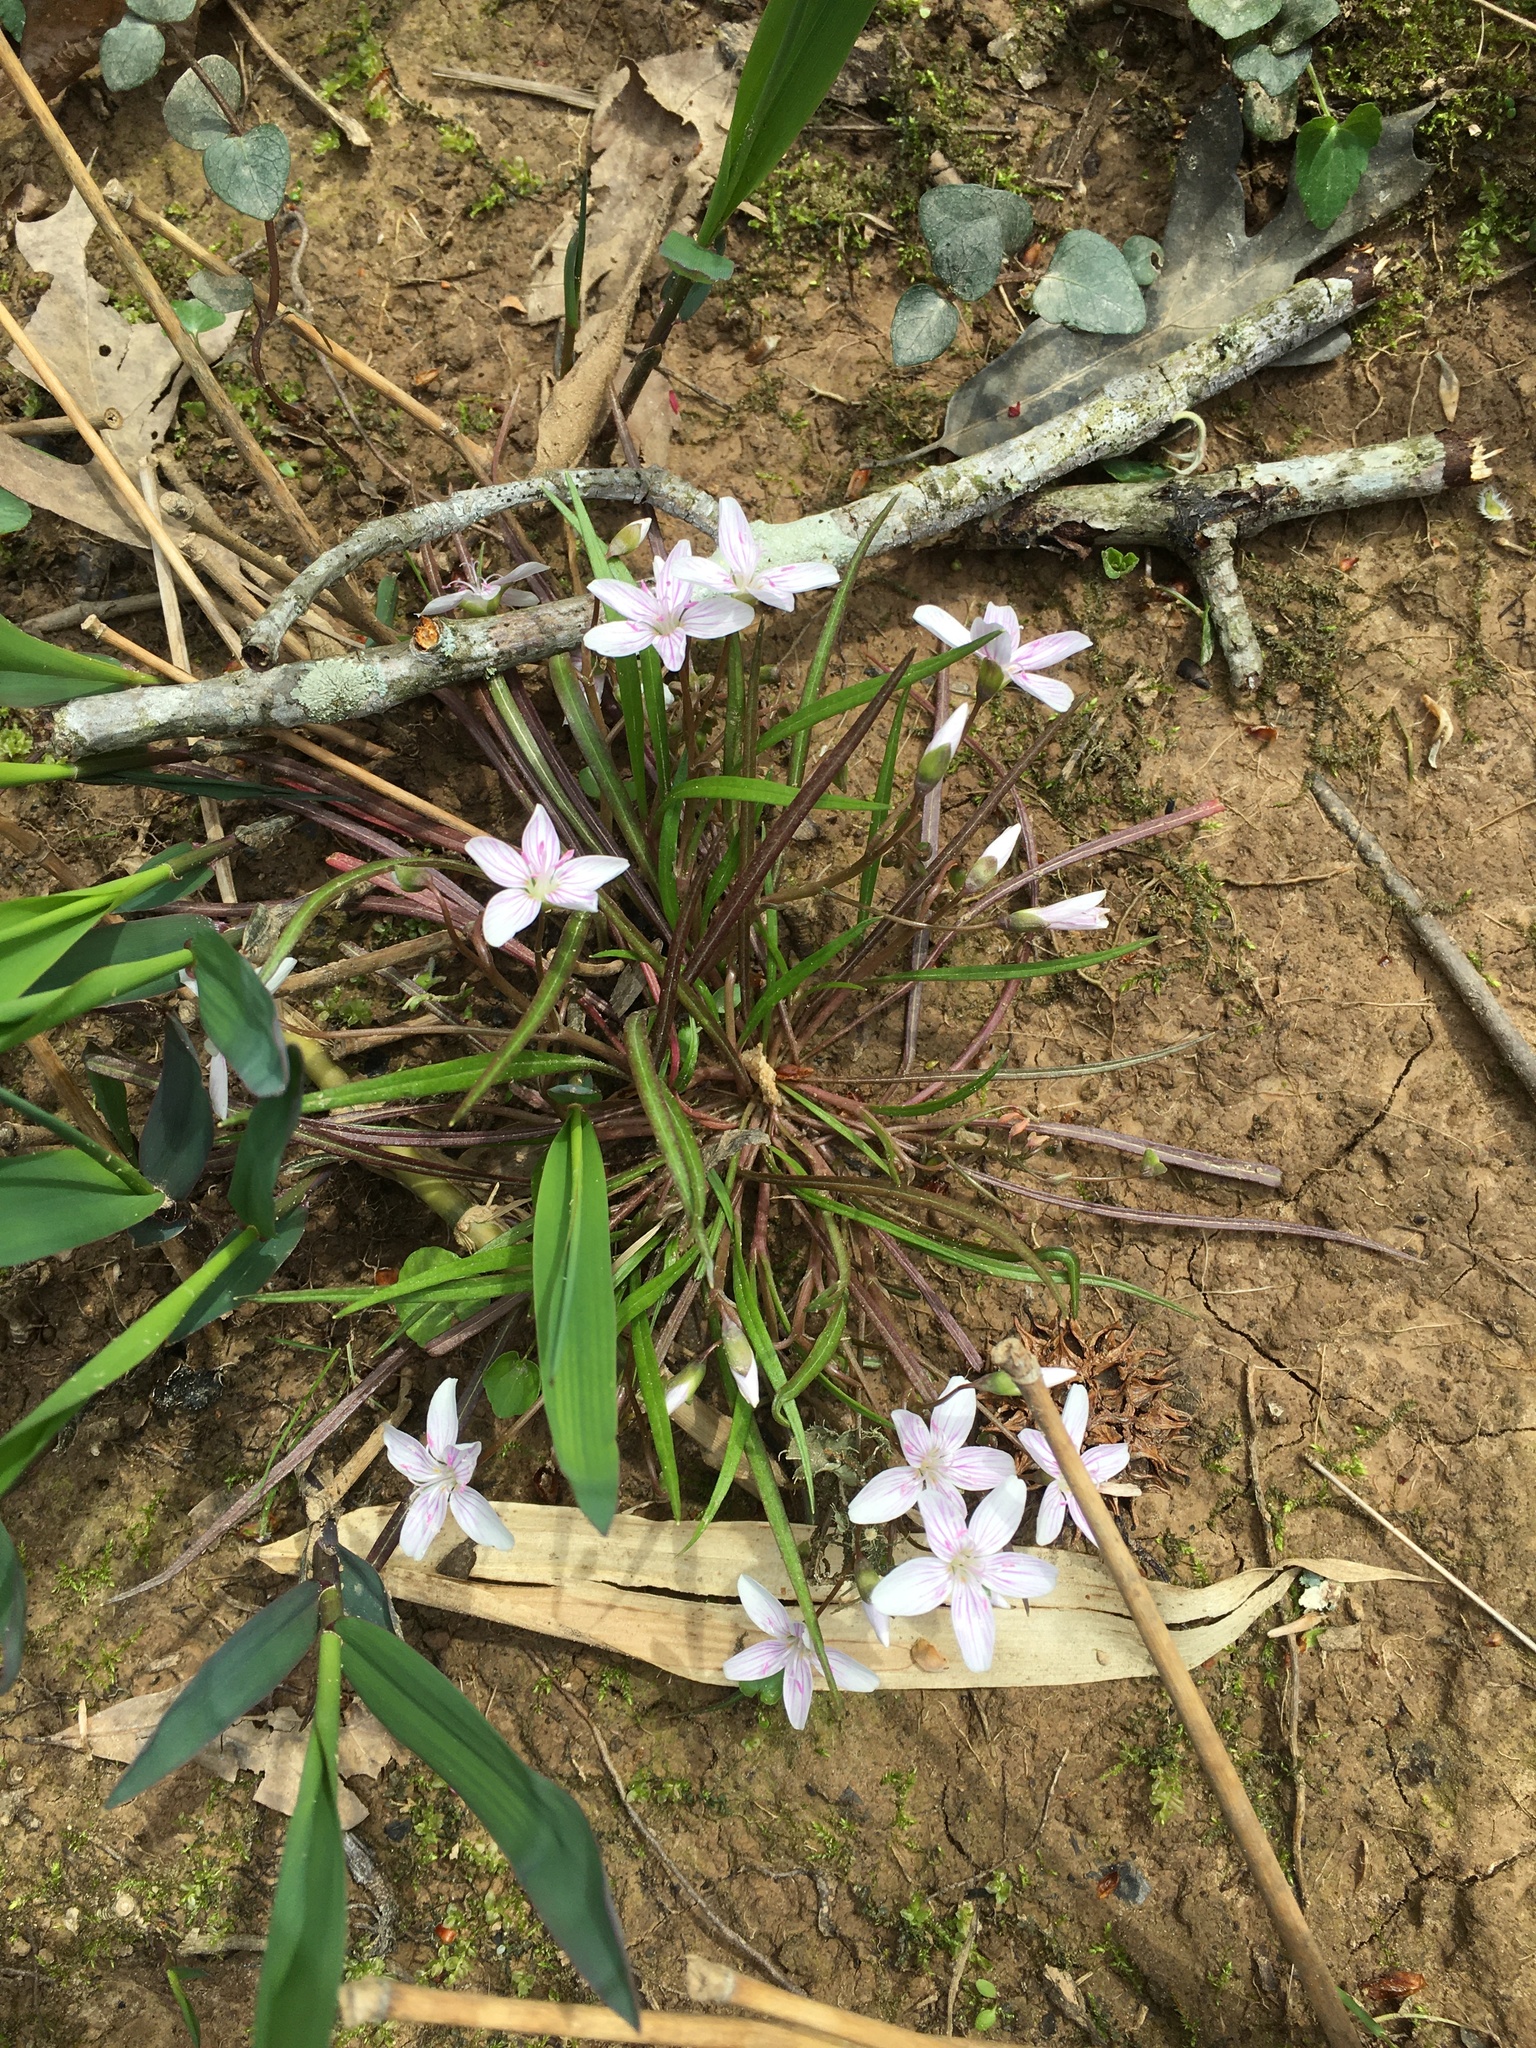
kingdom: Plantae
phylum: Tracheophyta
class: Magnoliopsida
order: Caryophyllales
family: Montiaceae
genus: Claytonia
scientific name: Claytonia virginica
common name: Virginia springbeauty
